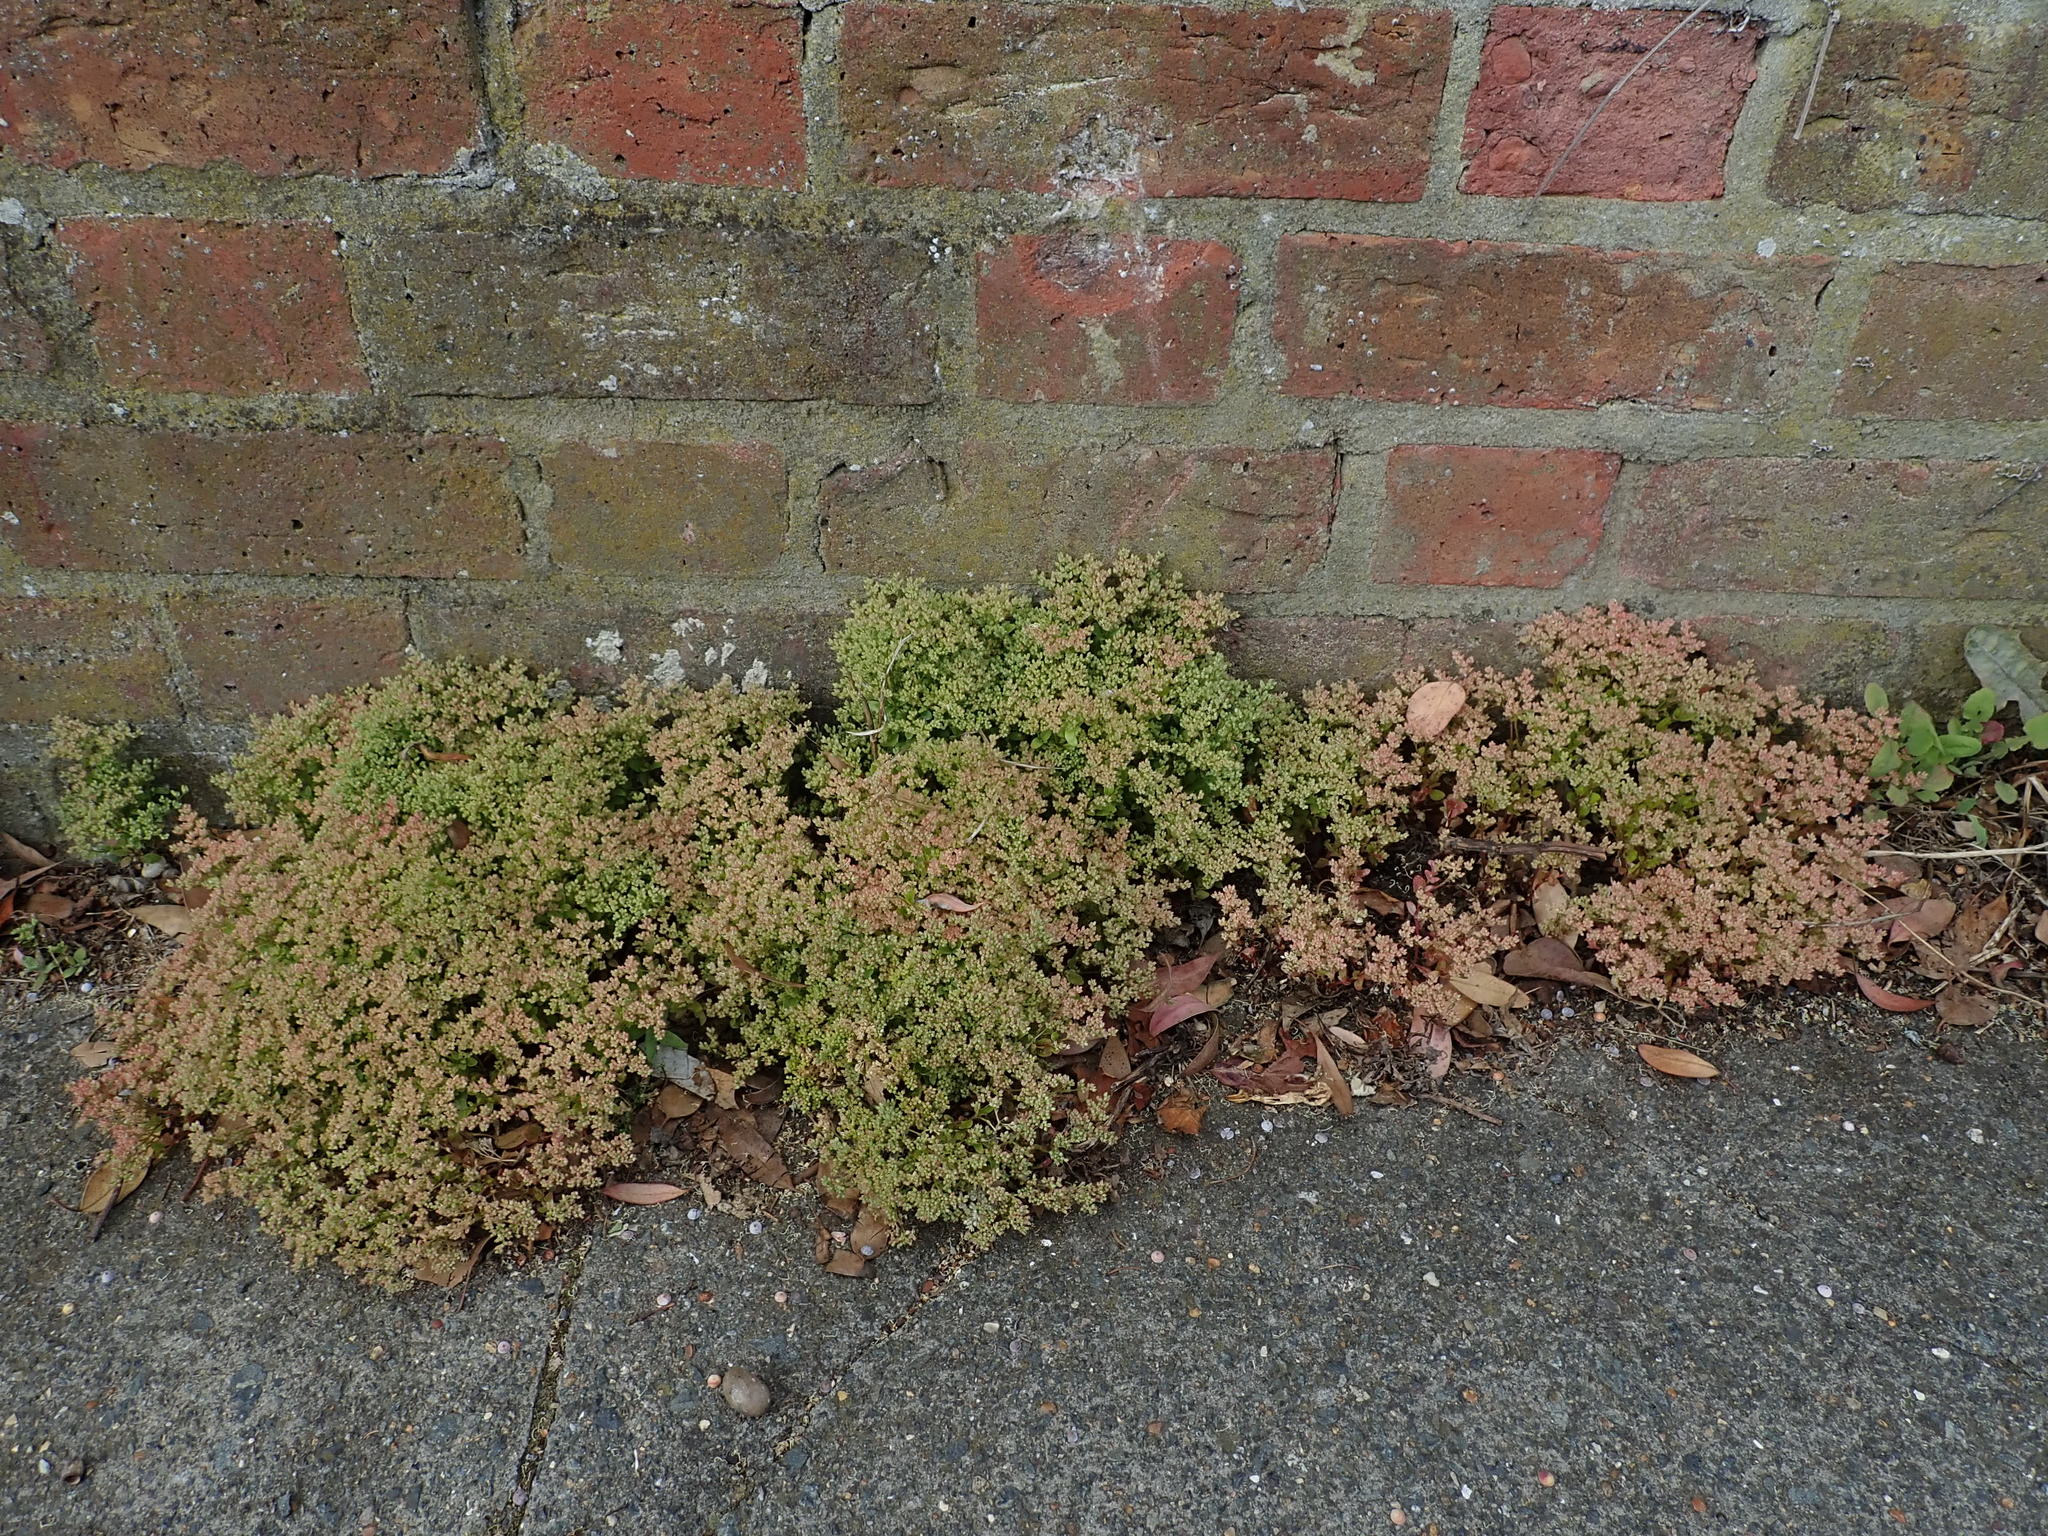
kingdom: Plantae
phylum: Tracheophyta
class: Magnoliopsida
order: Caryophyllales
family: Caryophyllaceae
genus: Polycarpon
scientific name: Polycarpon tetraphyllum
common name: Four-leaved all-seed
